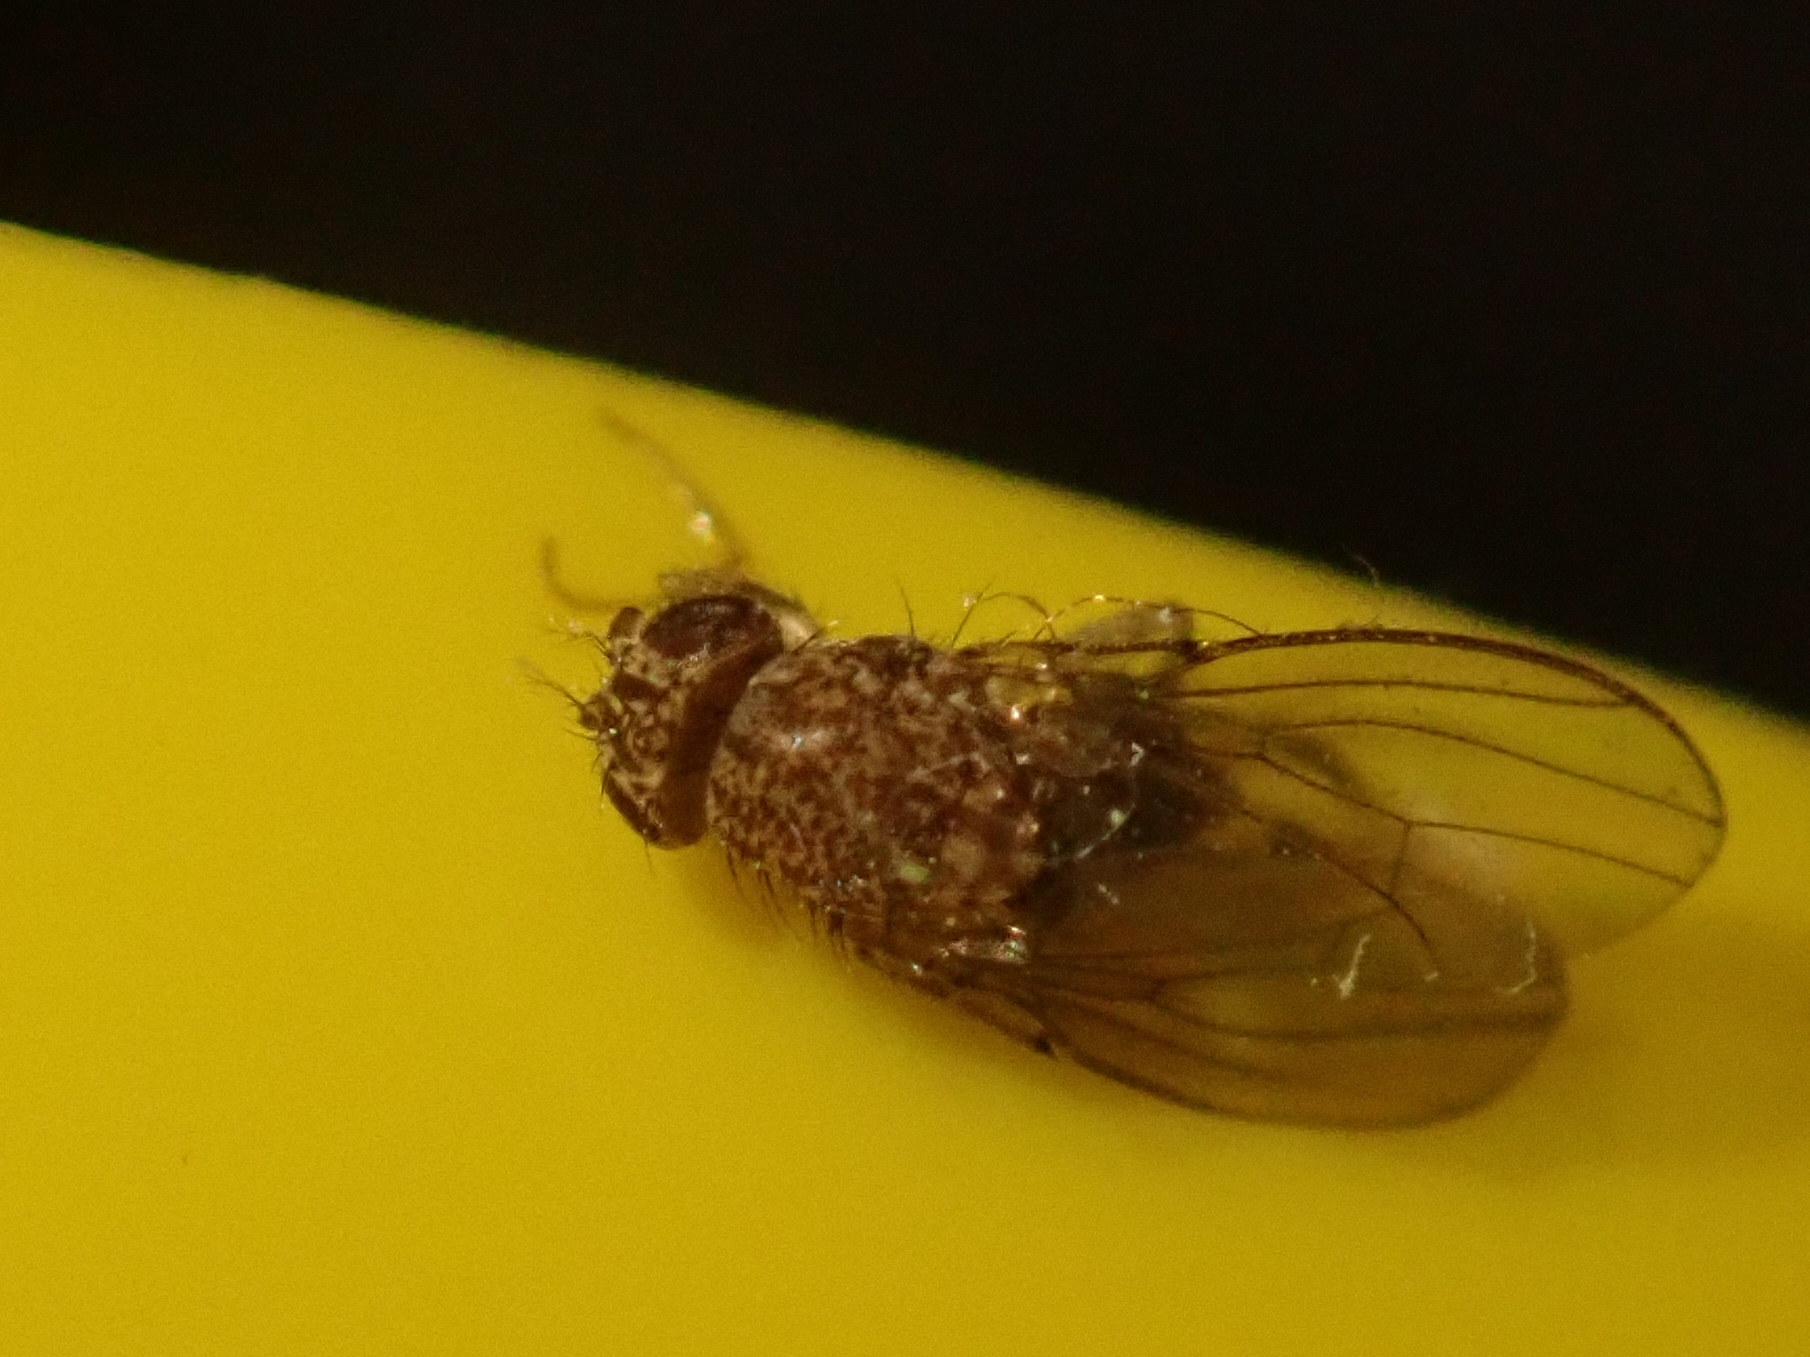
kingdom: Animalia
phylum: Arthropoda
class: Insecta
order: Diptera
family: Drosophilidae
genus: Drosophila
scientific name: Drosophila repleta
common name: Pomace fly
